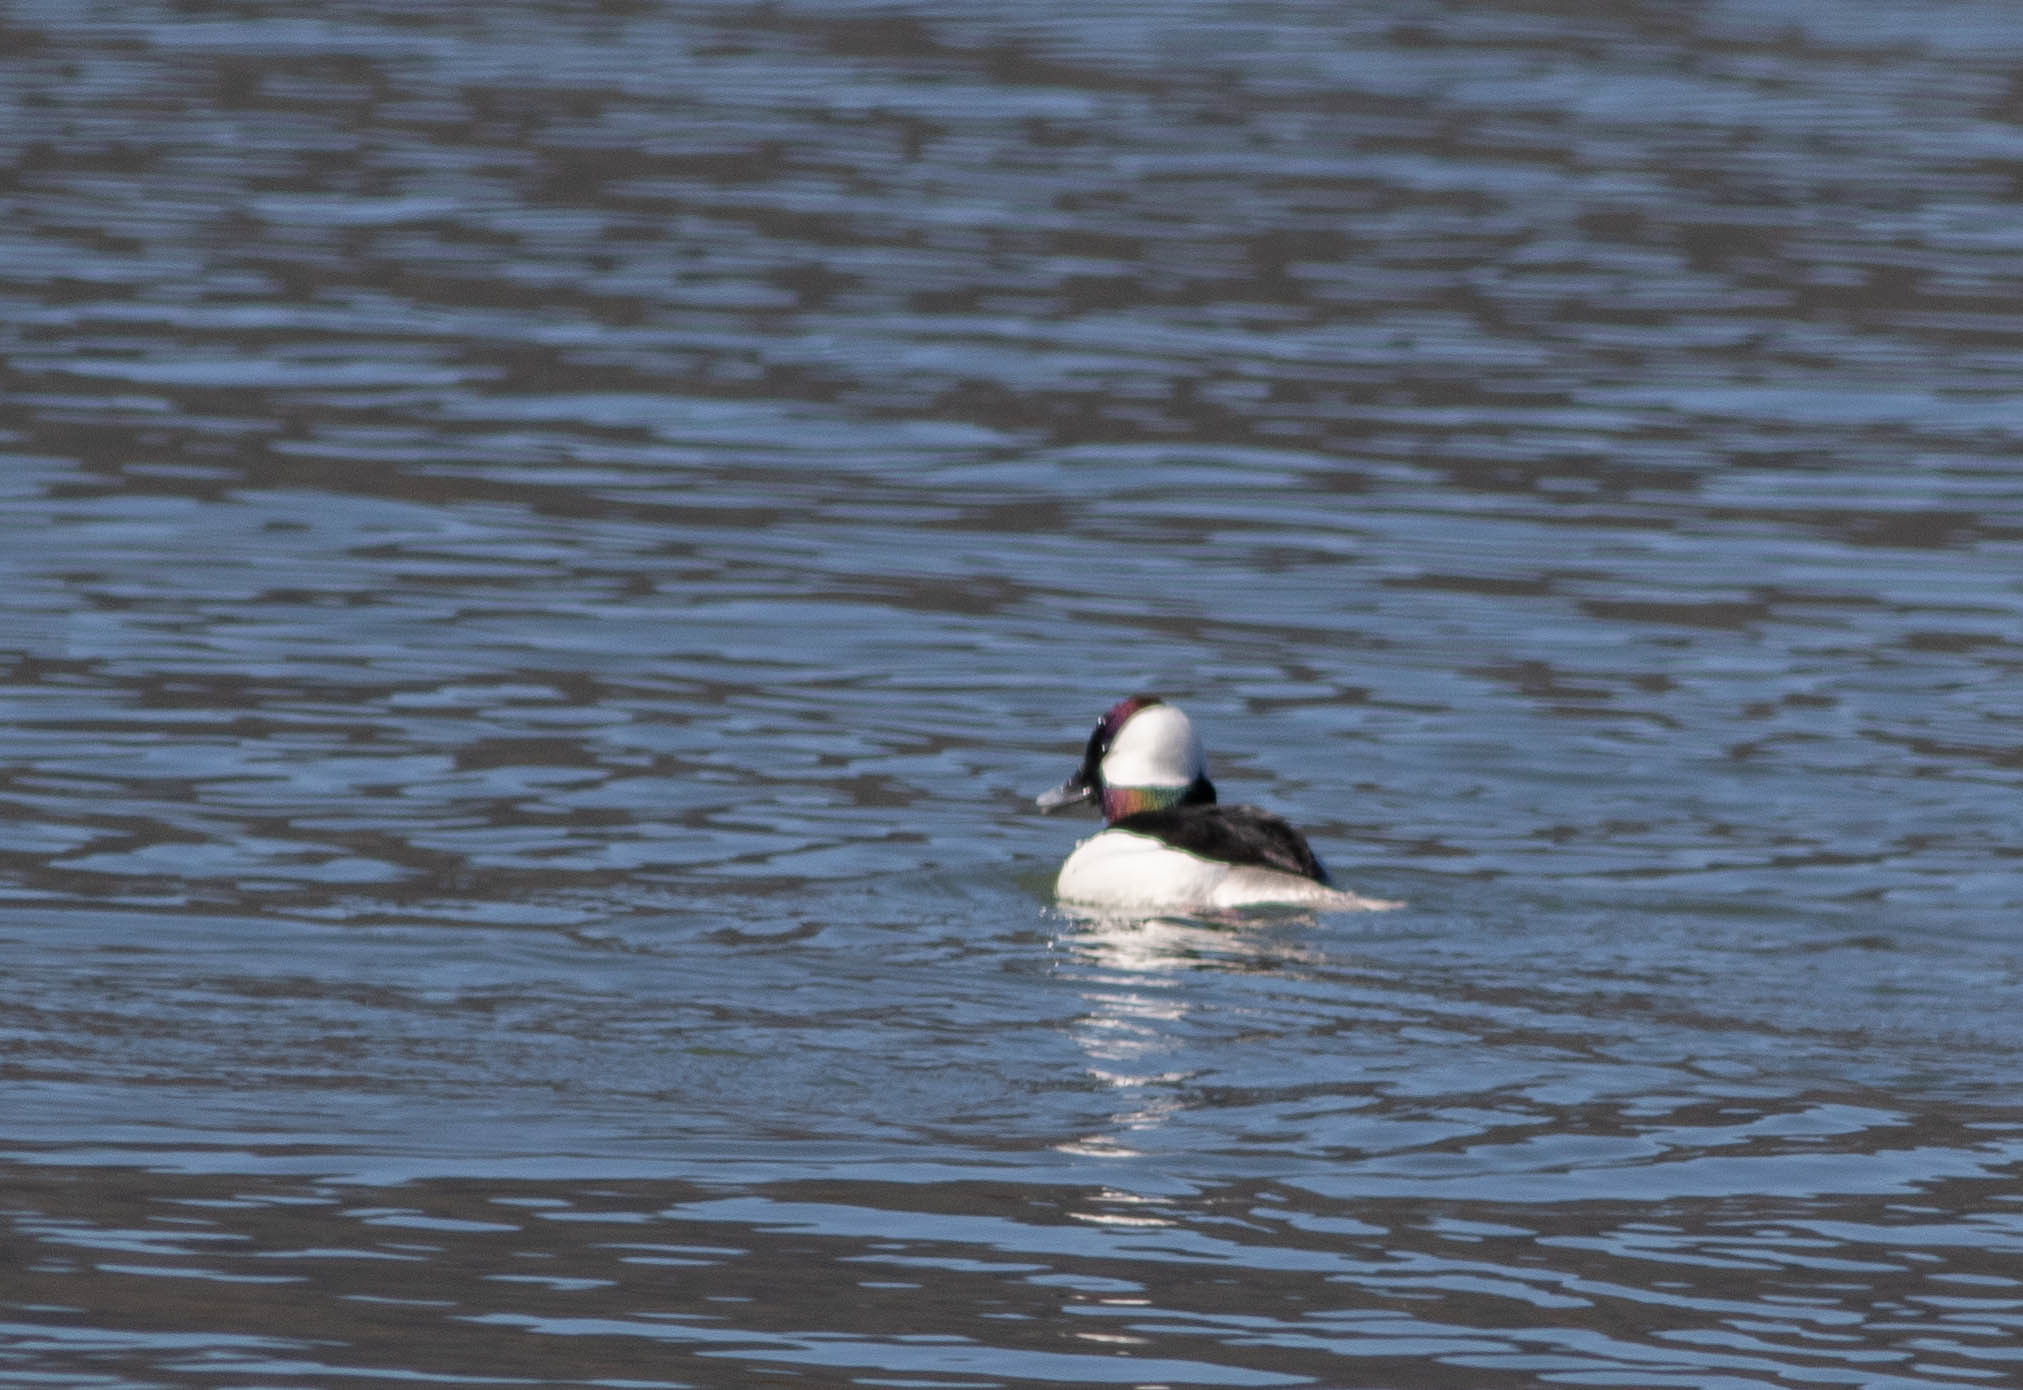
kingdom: Animalia
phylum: Chordata
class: Aves
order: Anseriformes
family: Anatidae
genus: Bucephala
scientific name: Bucephala albeola
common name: Bufflehead
